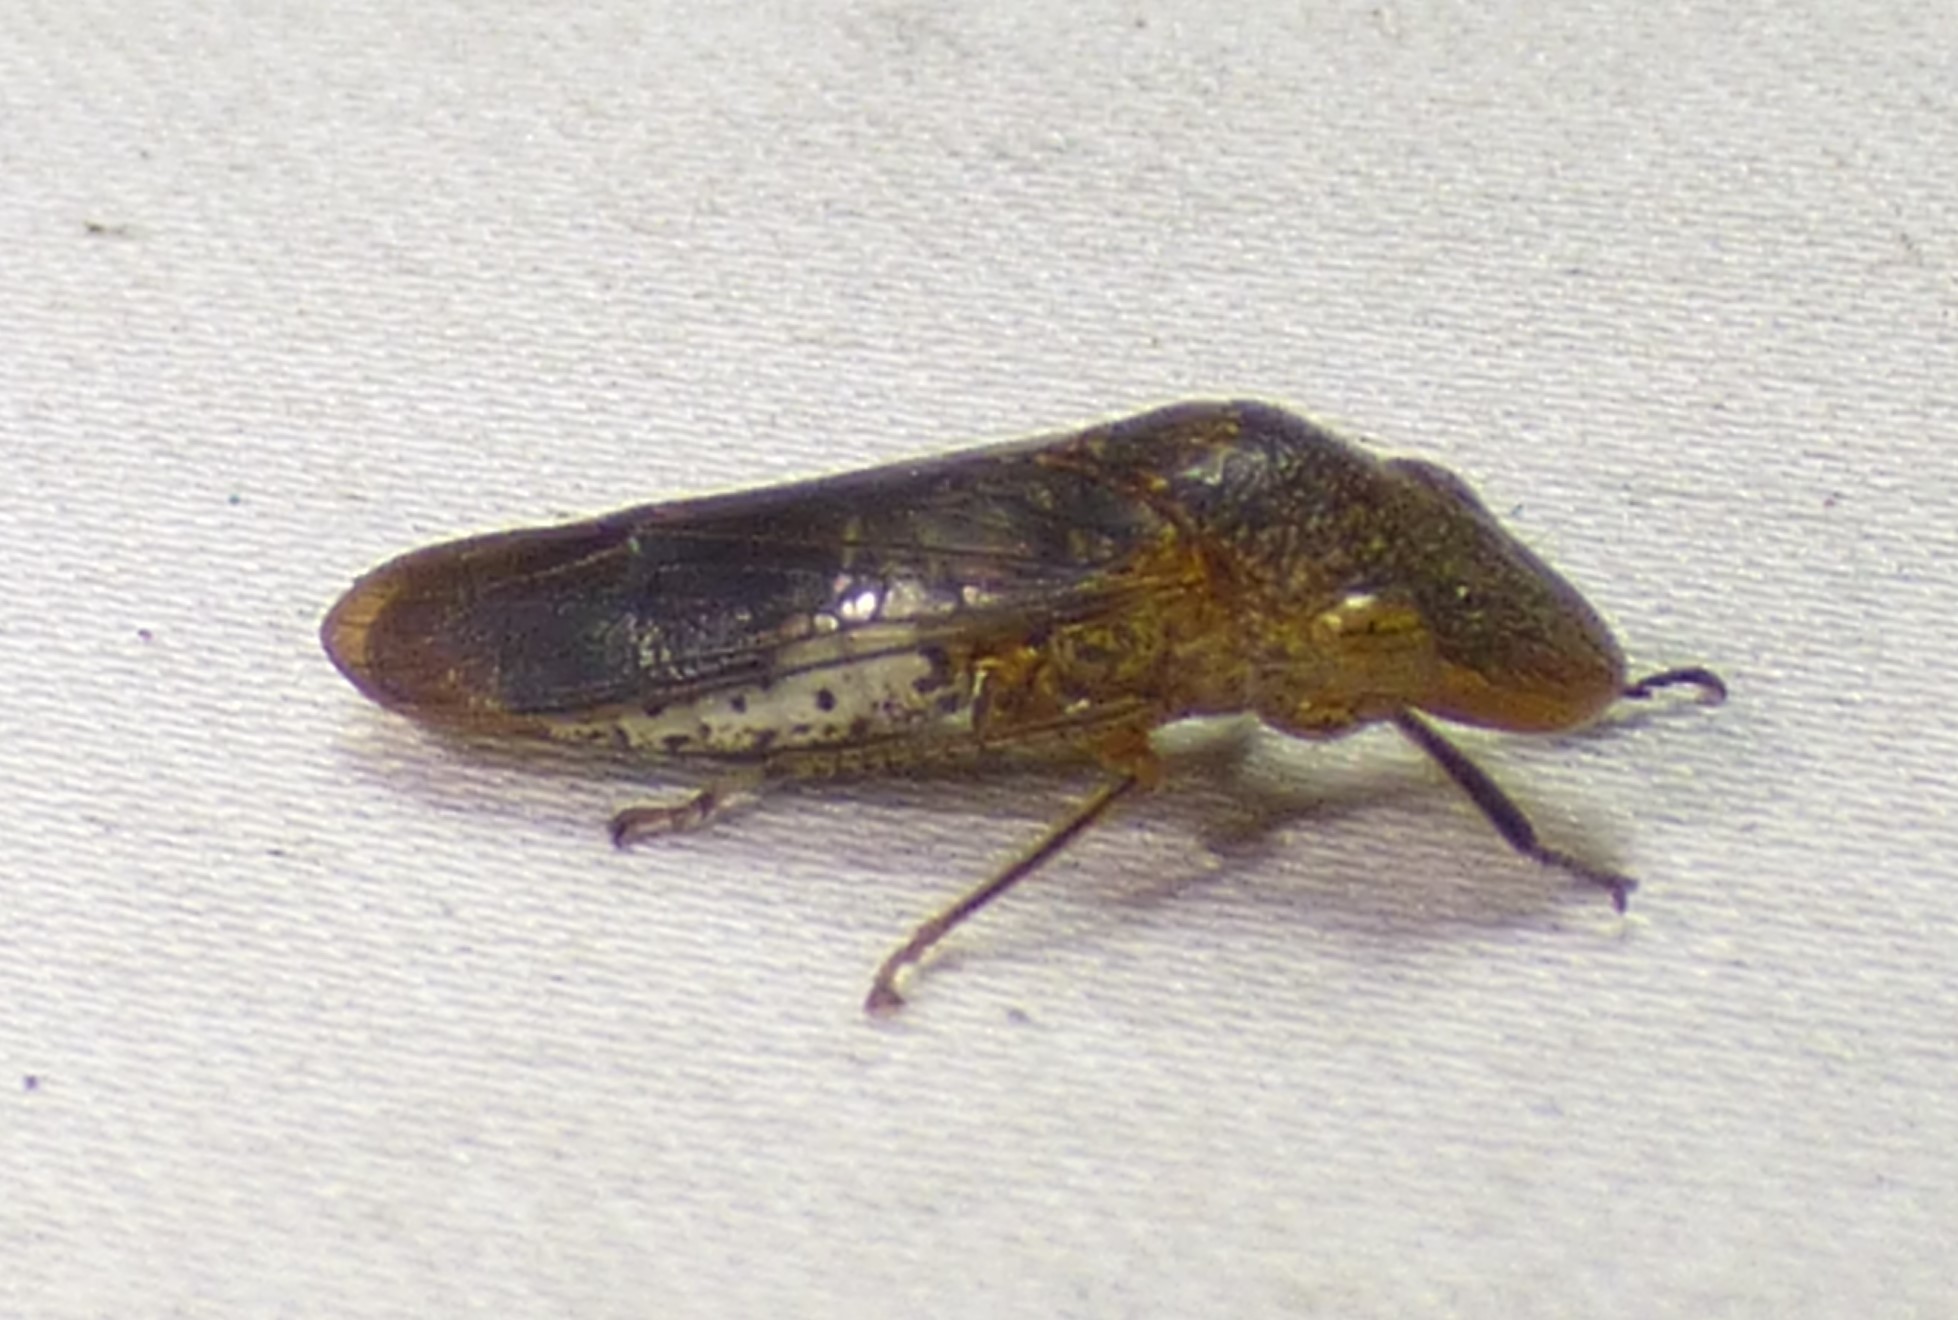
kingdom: Animalia
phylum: Arthropoda
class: Insecta
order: Hemiptera
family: Cicadellidae
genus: Homalodisca
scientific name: Homalodisca vitripennis
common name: Glassy-winged sharpshooter
